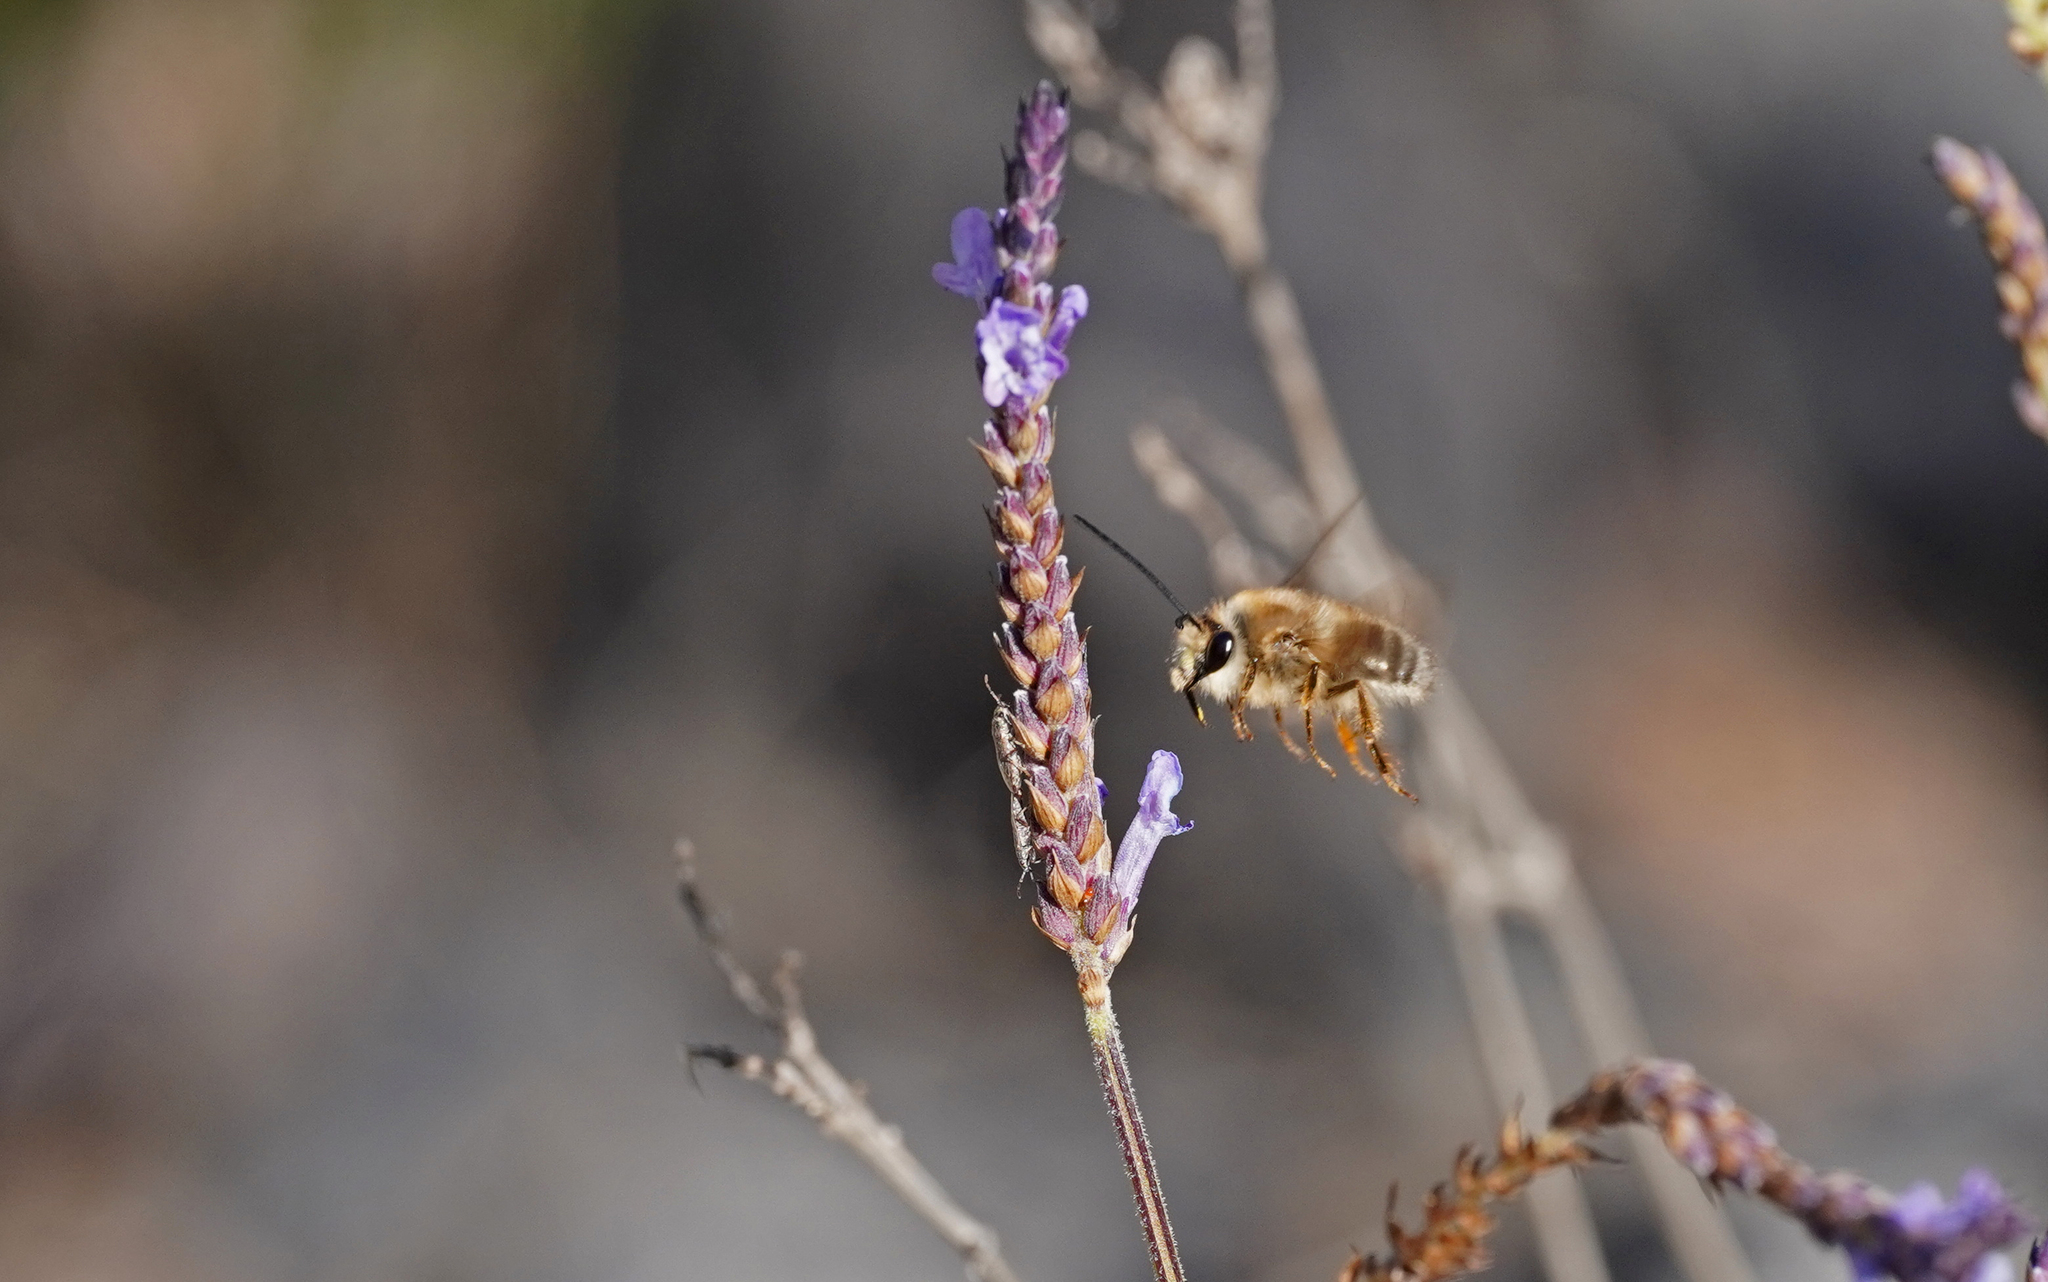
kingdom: Animalia
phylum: Arthropoda
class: Insecta
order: Hymenoptera
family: Apidae
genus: Eucera
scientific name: Eucera gracilipes
